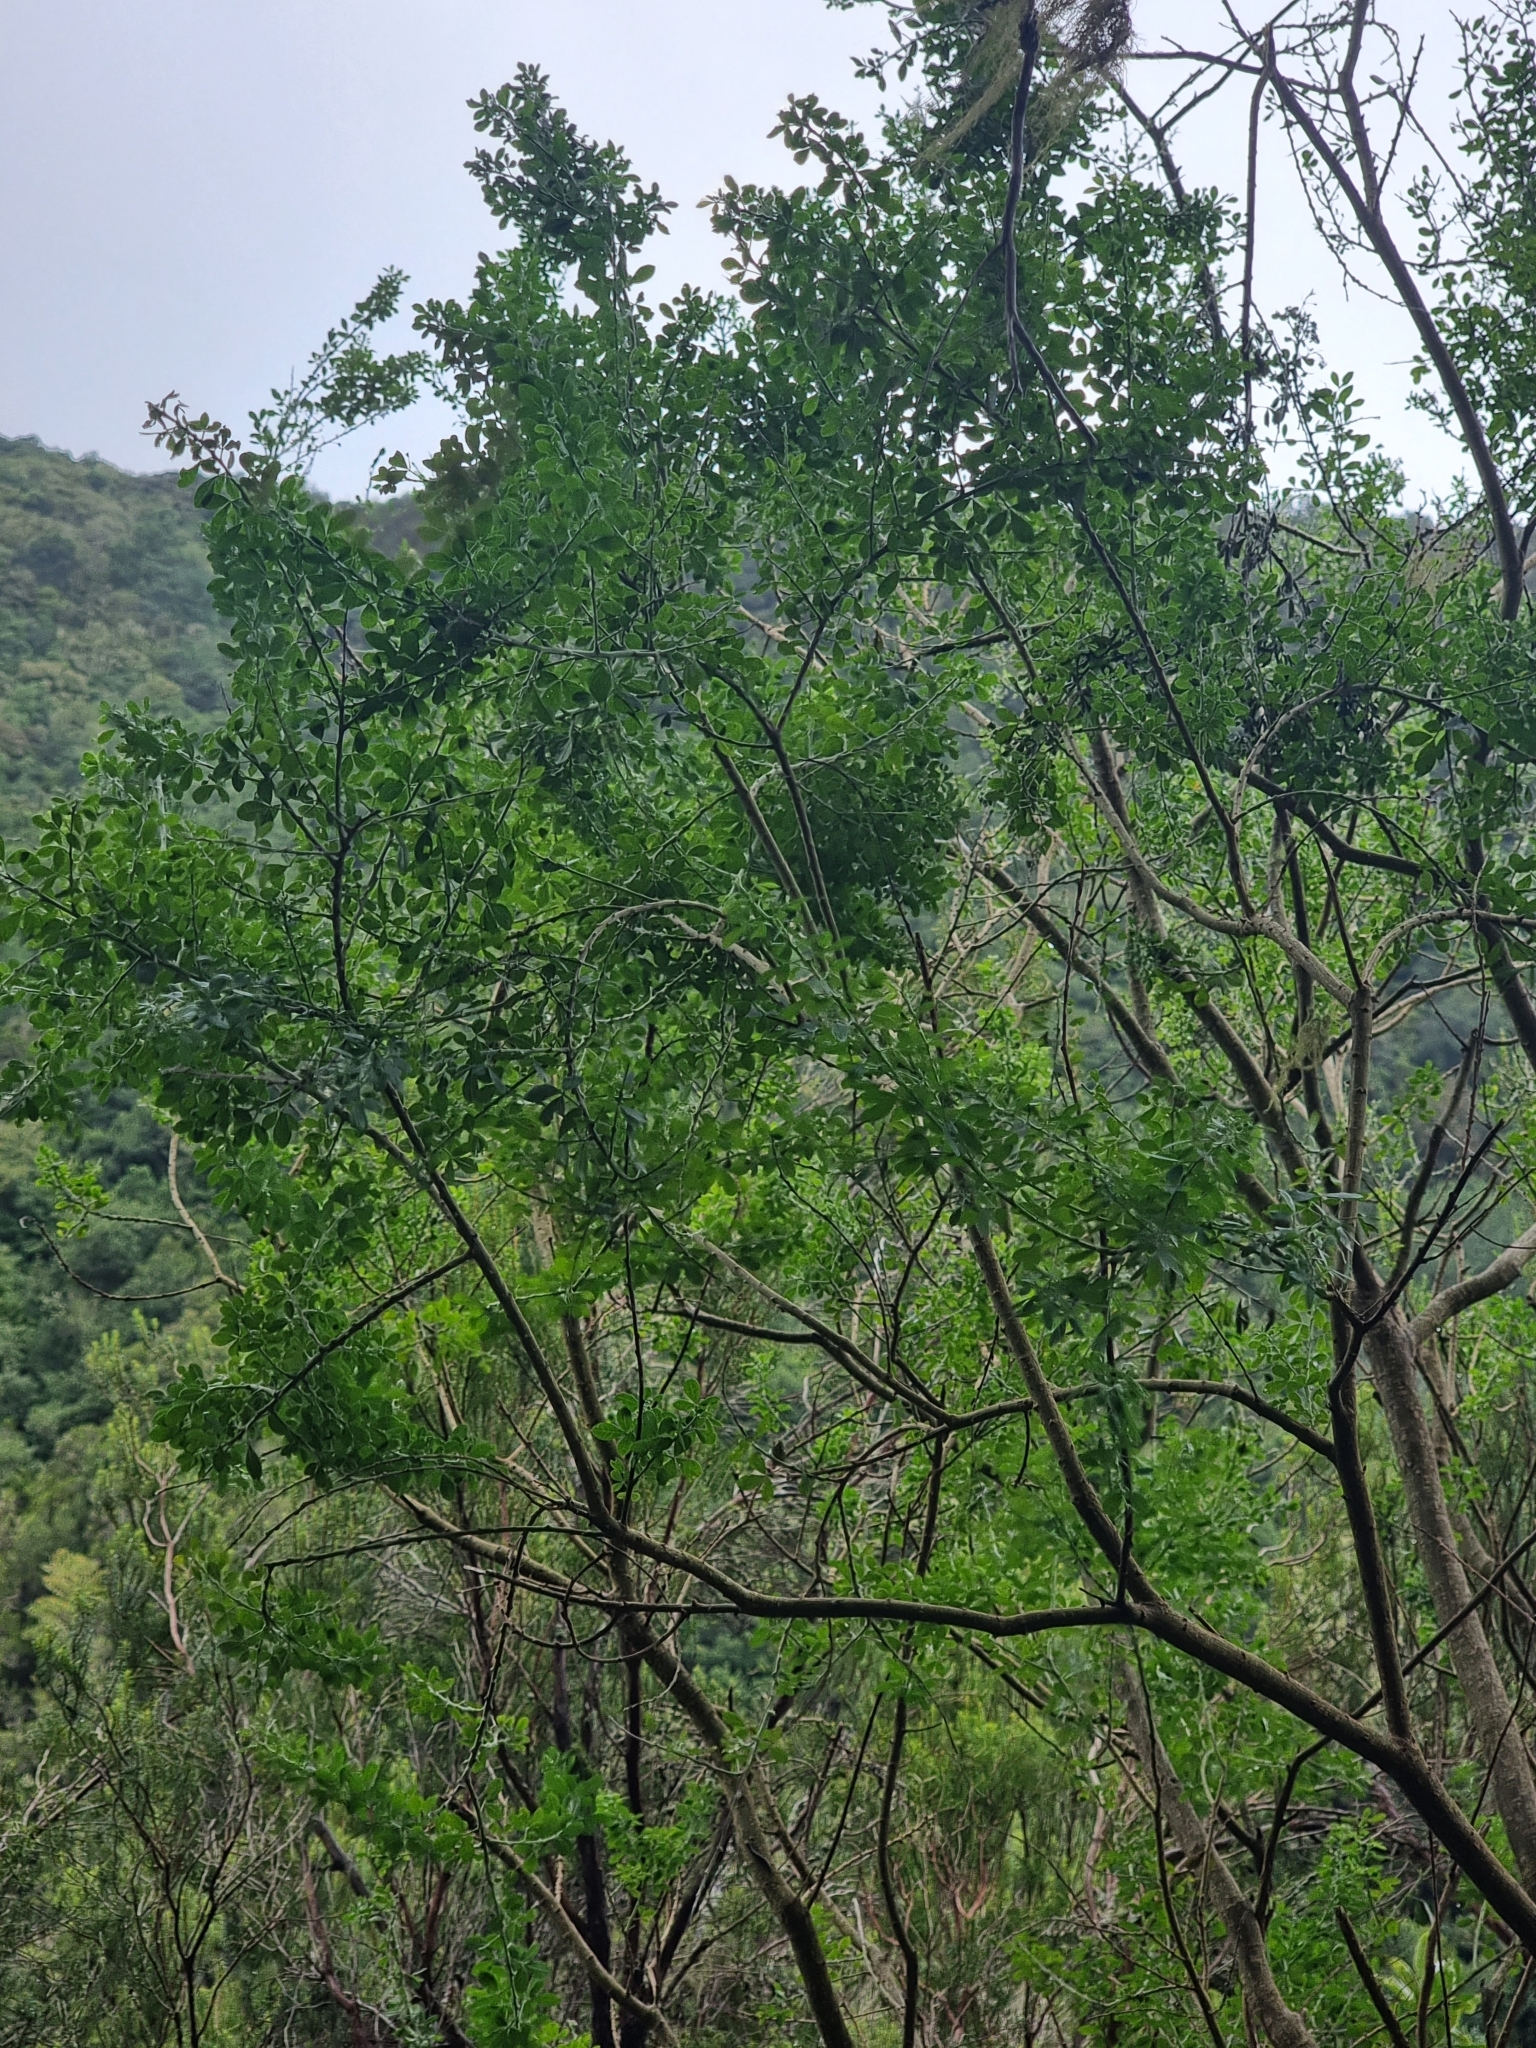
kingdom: Plantae
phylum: Tracheophyta
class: Magnoliopsida
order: Fabales
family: Fabaceae
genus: Genista
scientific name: Genista maderensis
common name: Madeira dyer's greenweed
